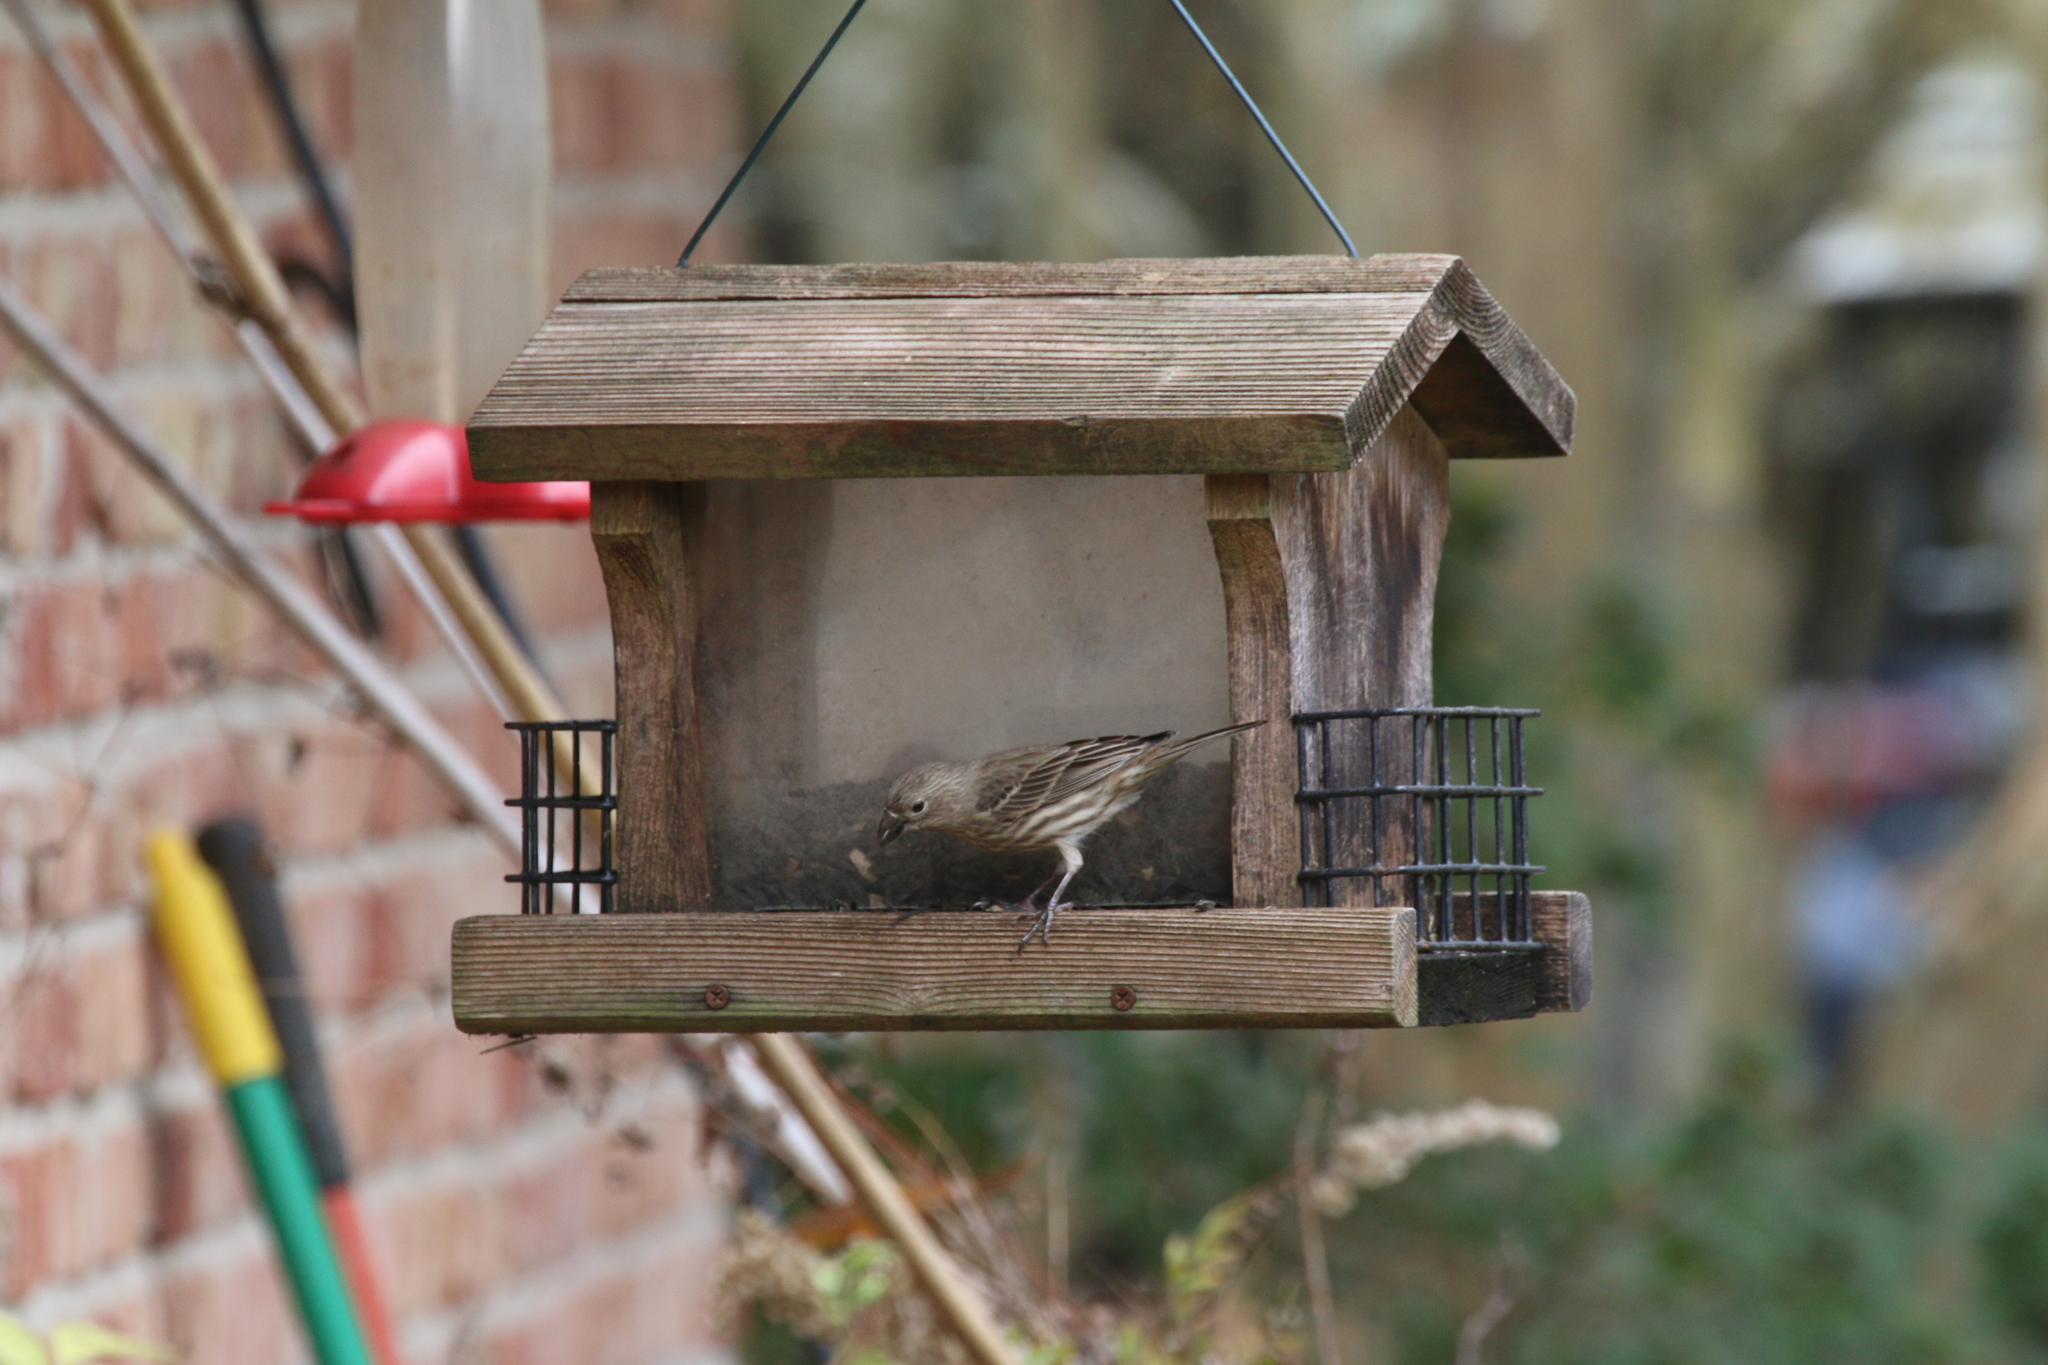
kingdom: Animalia
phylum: Chordata
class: Aves
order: Passeriformes
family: Fringillidae
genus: Haemorhous
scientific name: Haemorhous mexicanus
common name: House finch
